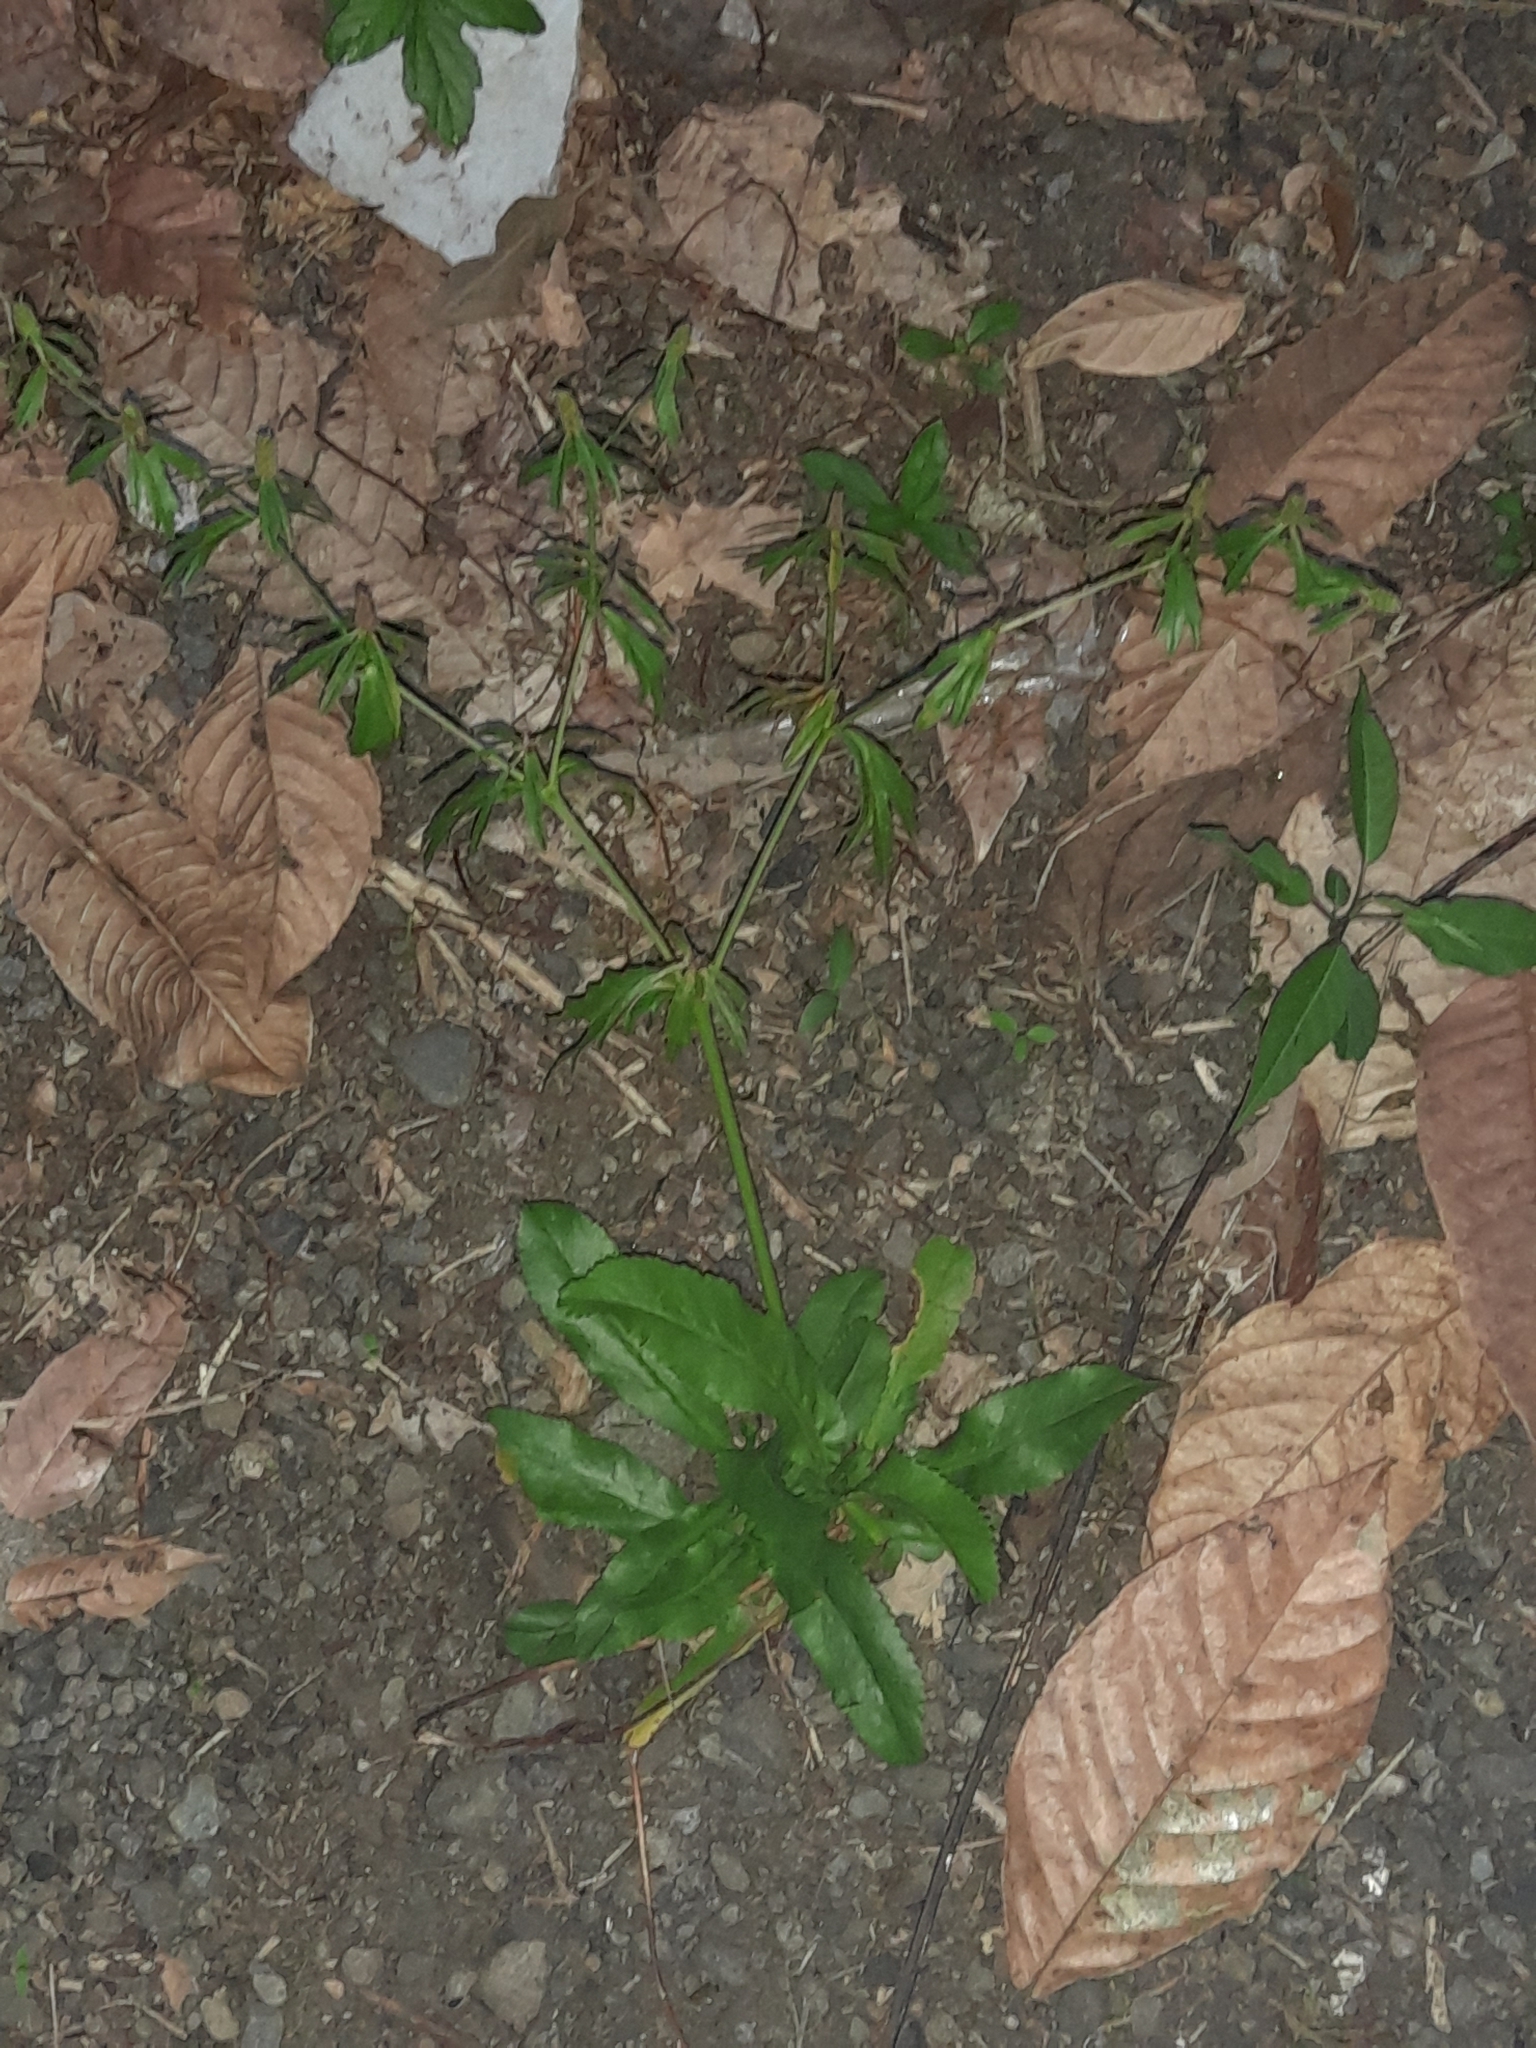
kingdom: Plantae
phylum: Tracheophyta
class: Magnoliopsida
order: Apiales
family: Apiaceae
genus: Eryngium
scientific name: Eryngium foetidum
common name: Fitweed
